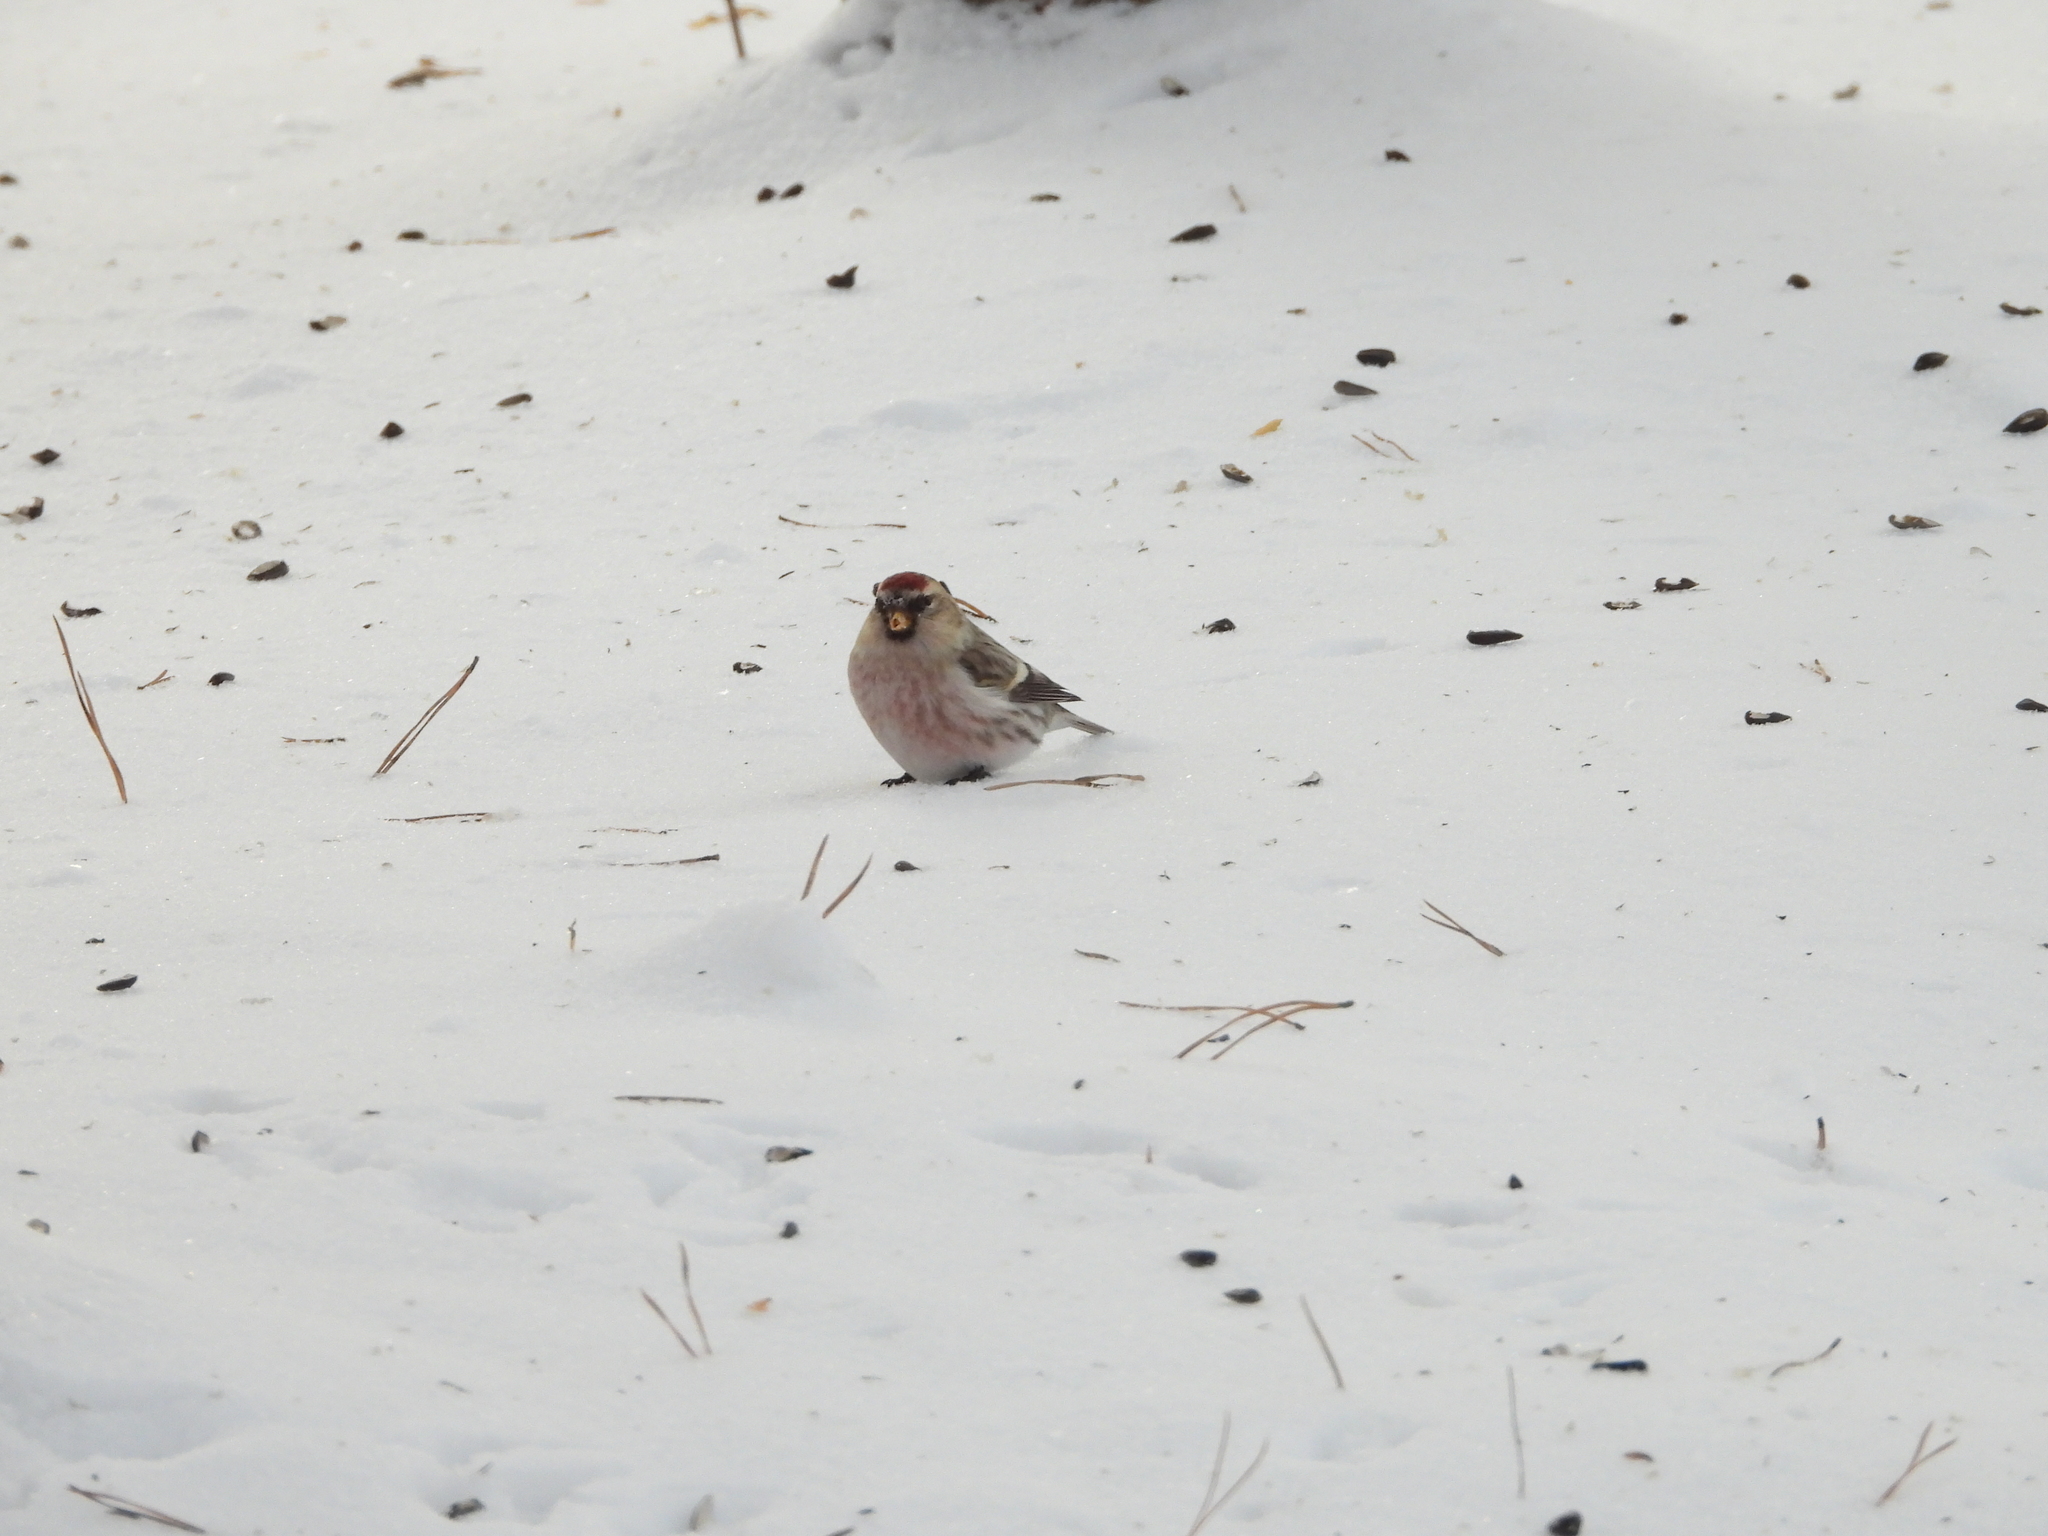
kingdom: Animalia
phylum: Chordata
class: Aves
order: Passeriformes
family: Fringillidae
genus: Acanthis
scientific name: Acanthis flammea
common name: Common redpoll
